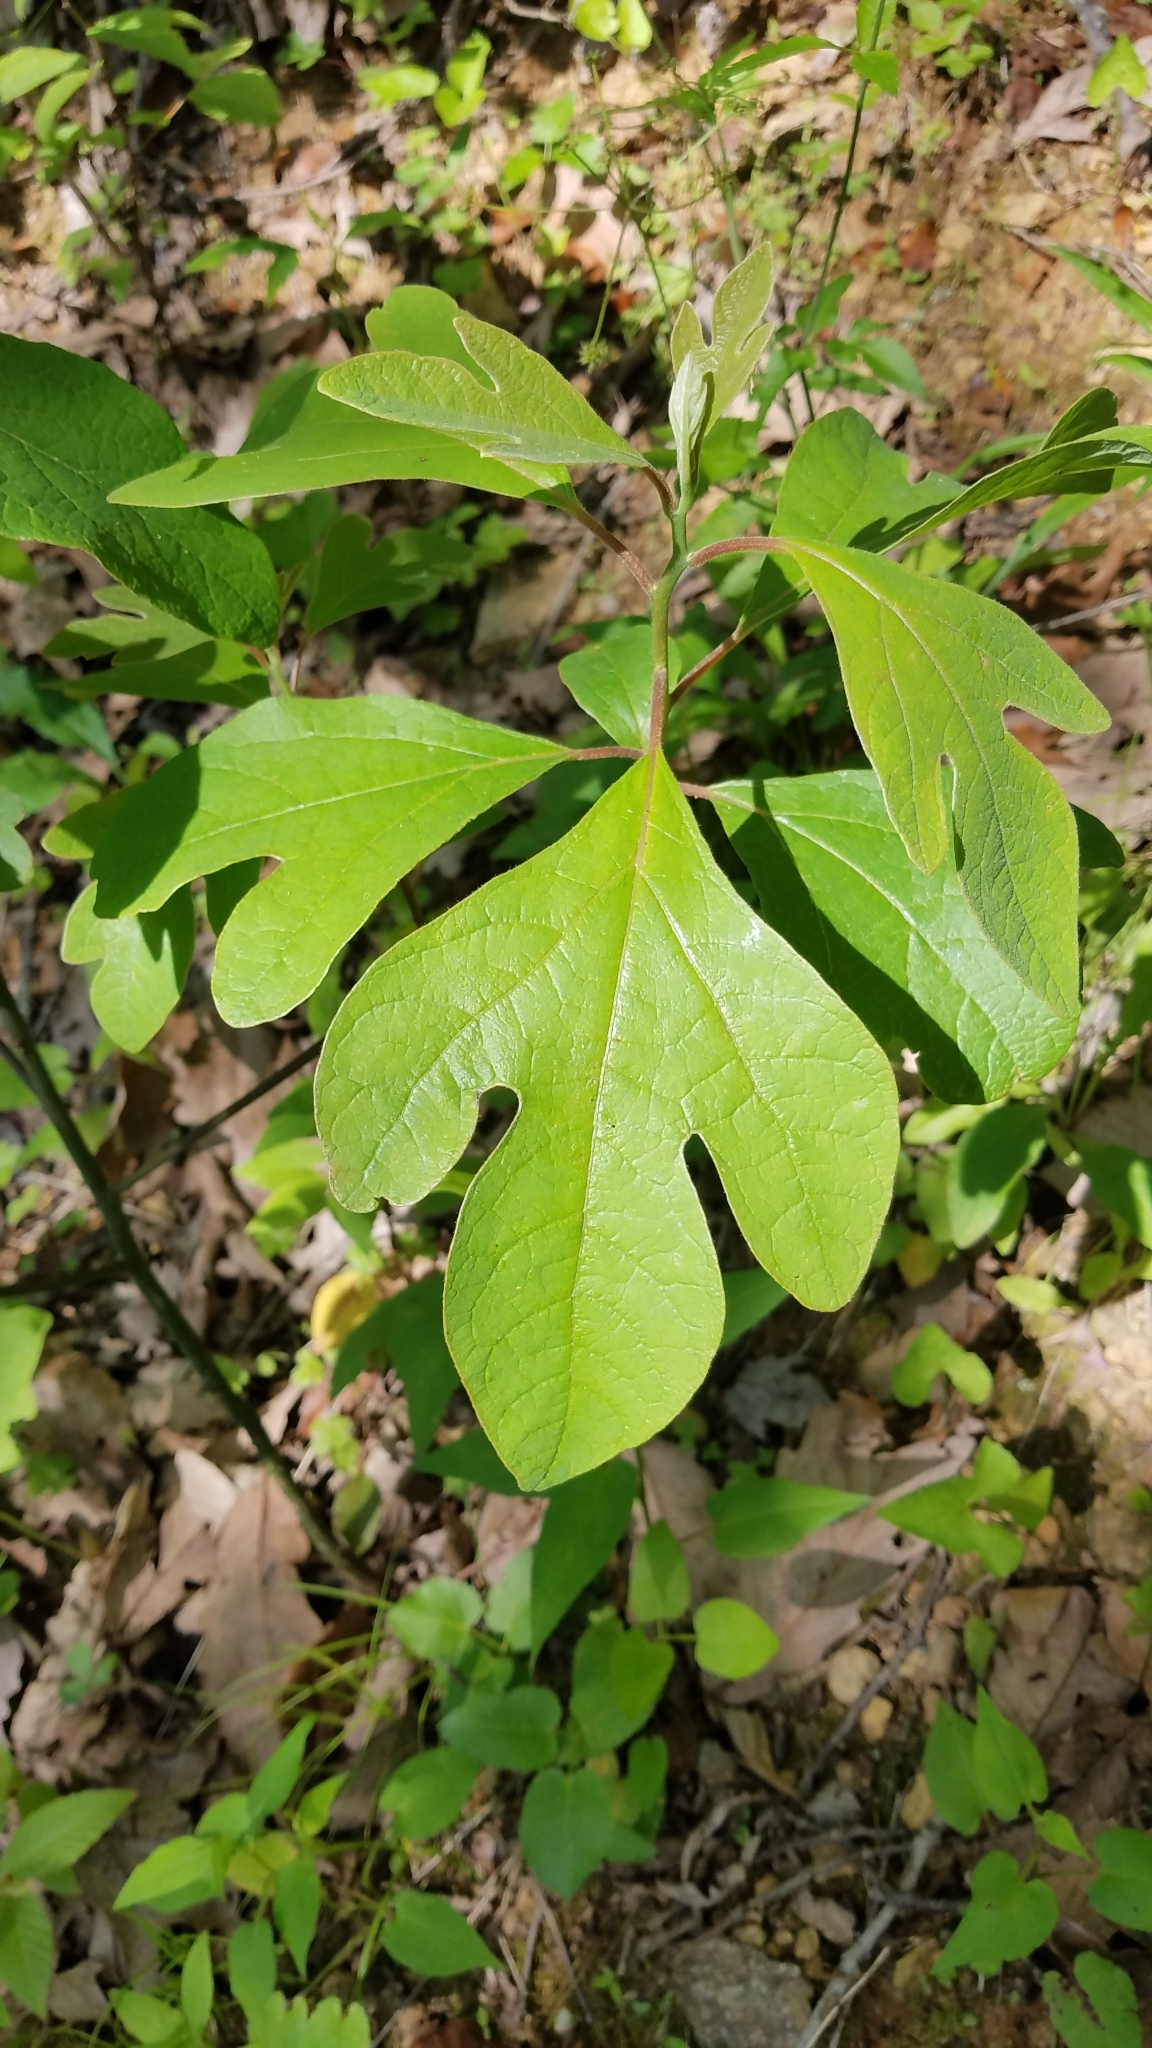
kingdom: Plantae
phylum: Tracheophyta
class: Magnoliopsida
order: Laurales
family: Lauraceae
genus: Sassafras
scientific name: Sassafras albidum
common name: Sassafras
